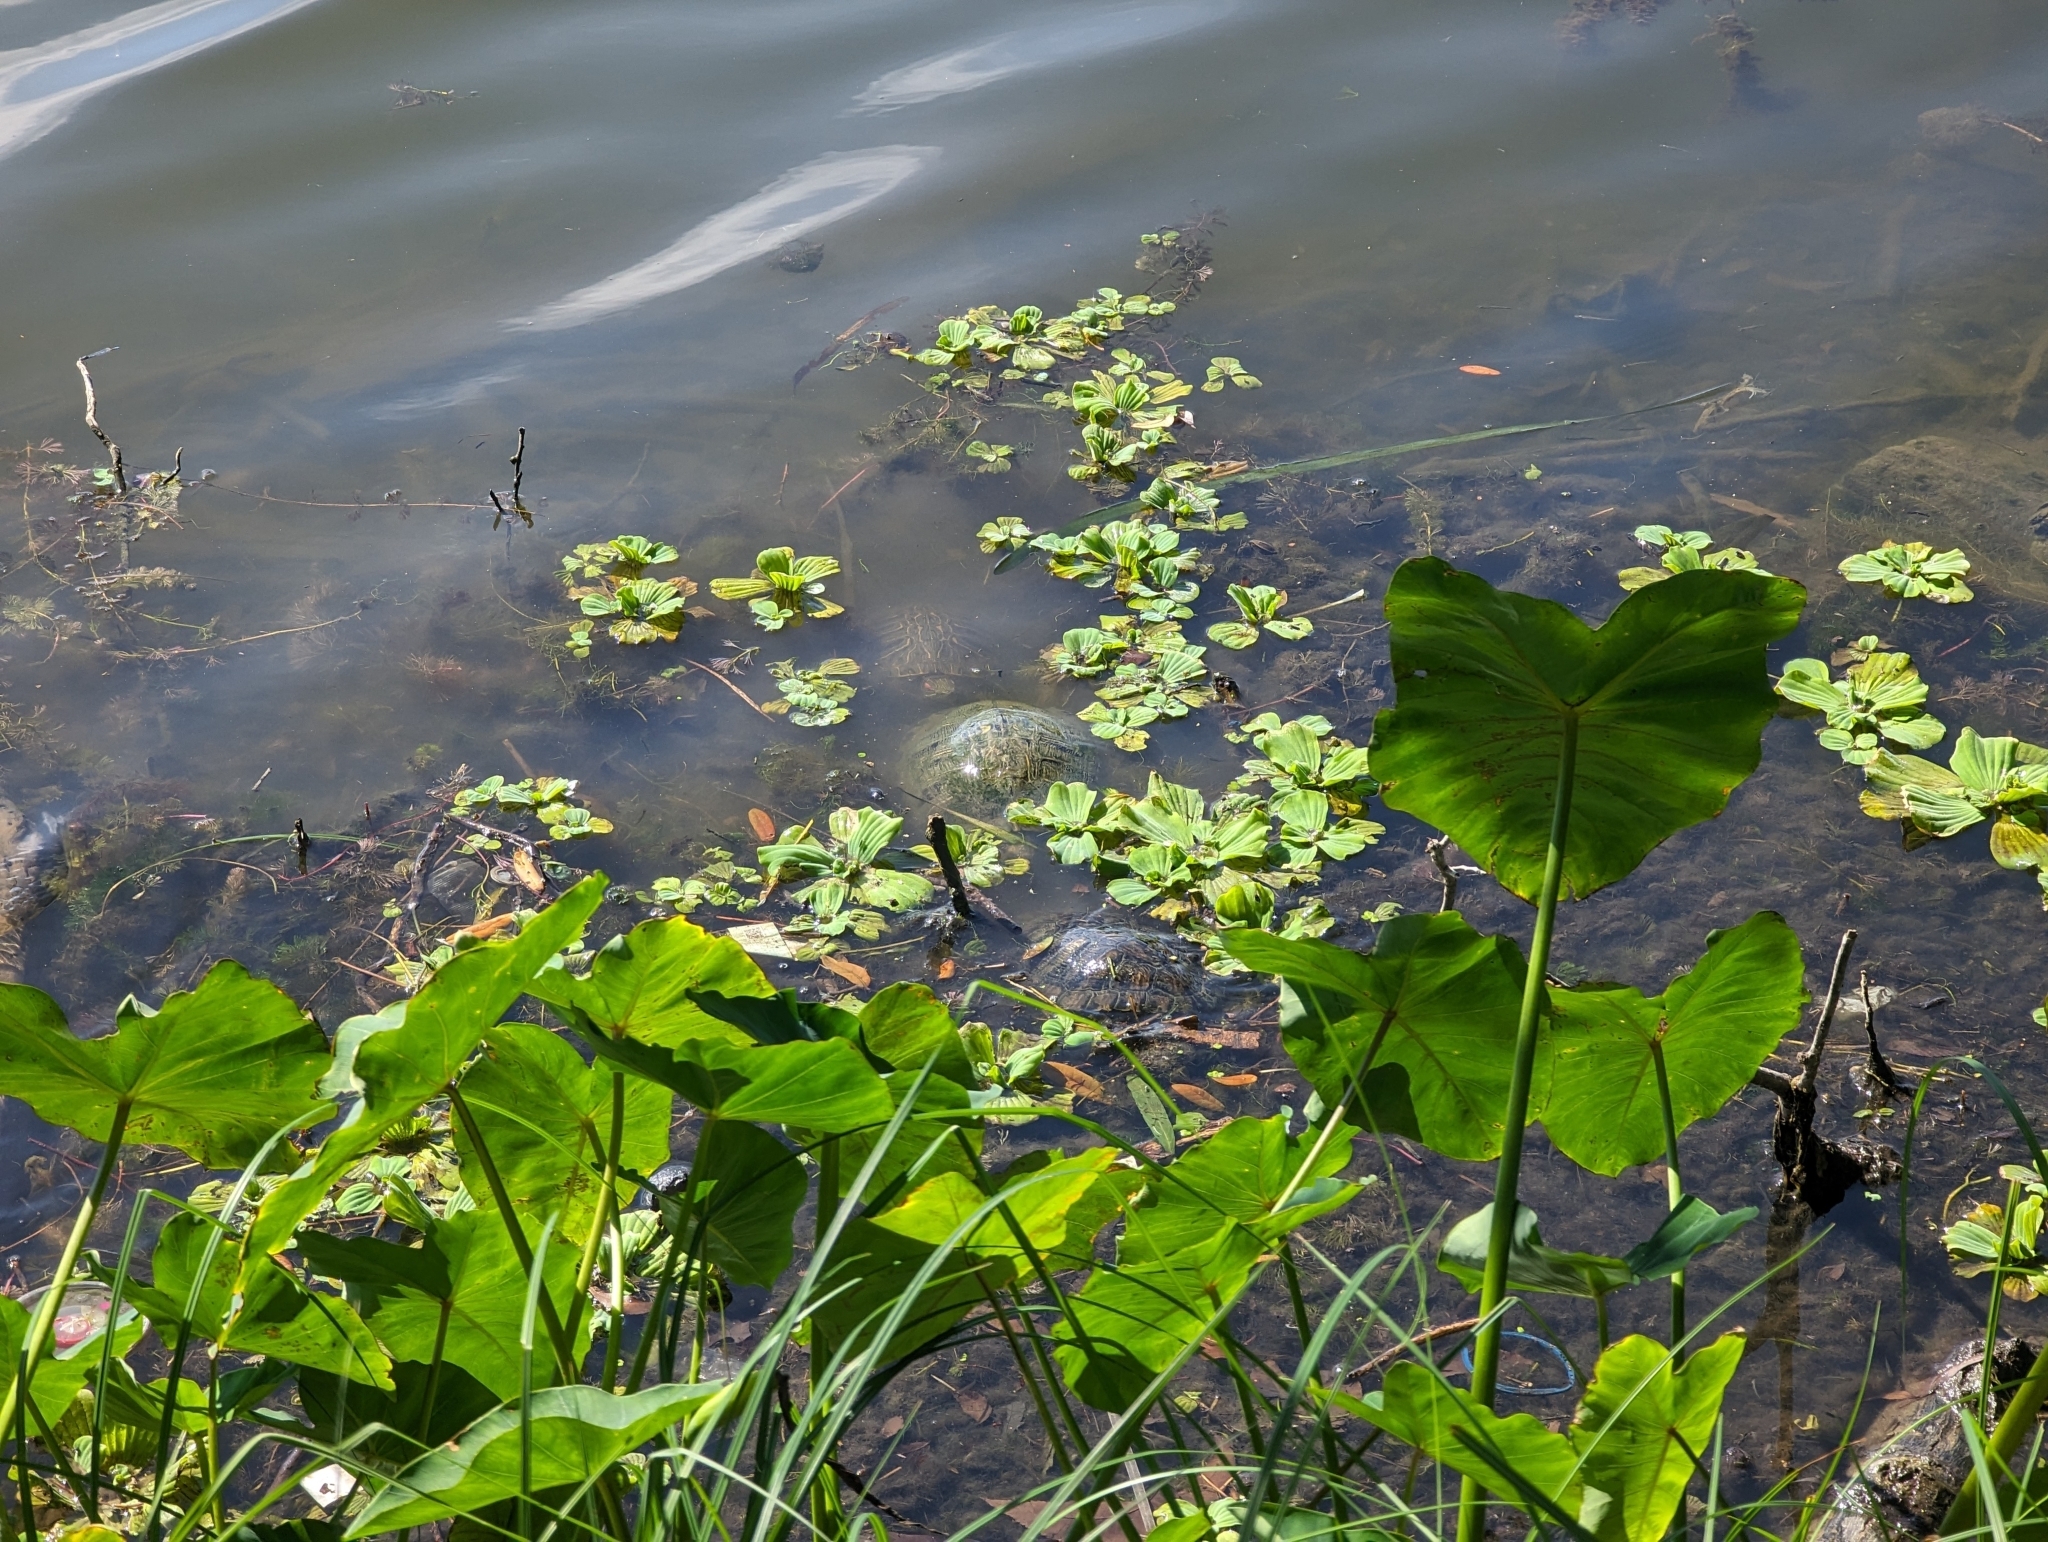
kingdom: Animalia
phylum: Chordata
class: Testudines
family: Emydidae
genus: Trachemys
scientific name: Trachemys scripta
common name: Slider
